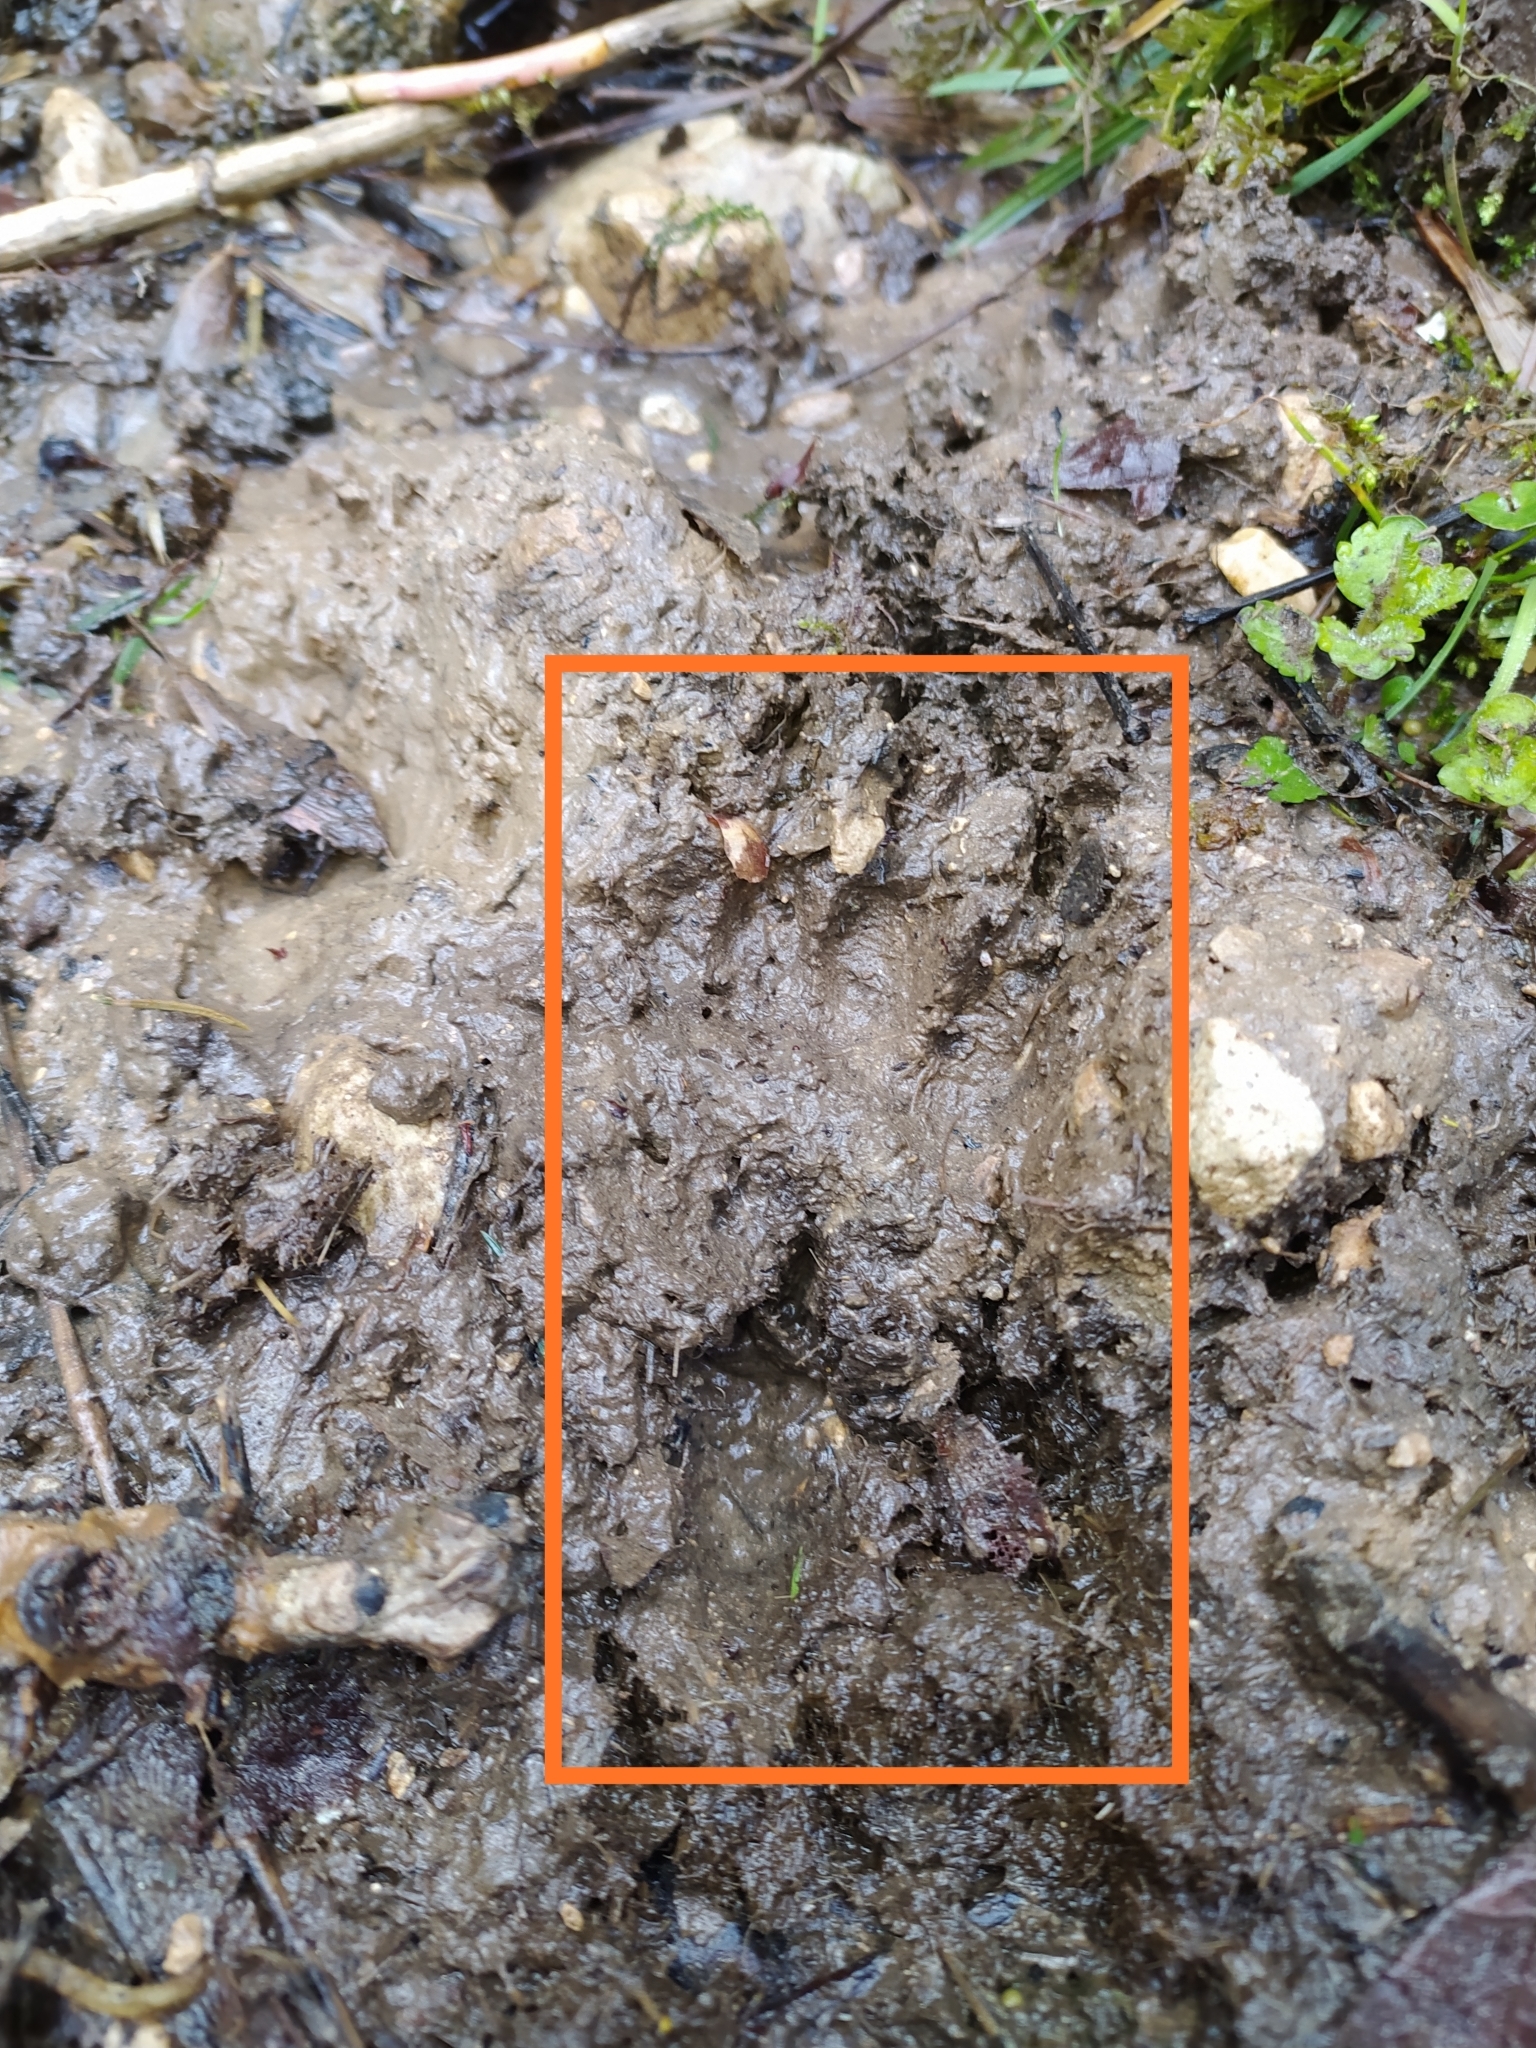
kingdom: Animalia
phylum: Chordata
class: Mammalia
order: Carnivora
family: Mustelidae
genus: Meles
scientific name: Meles meles
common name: Eurasian badger
